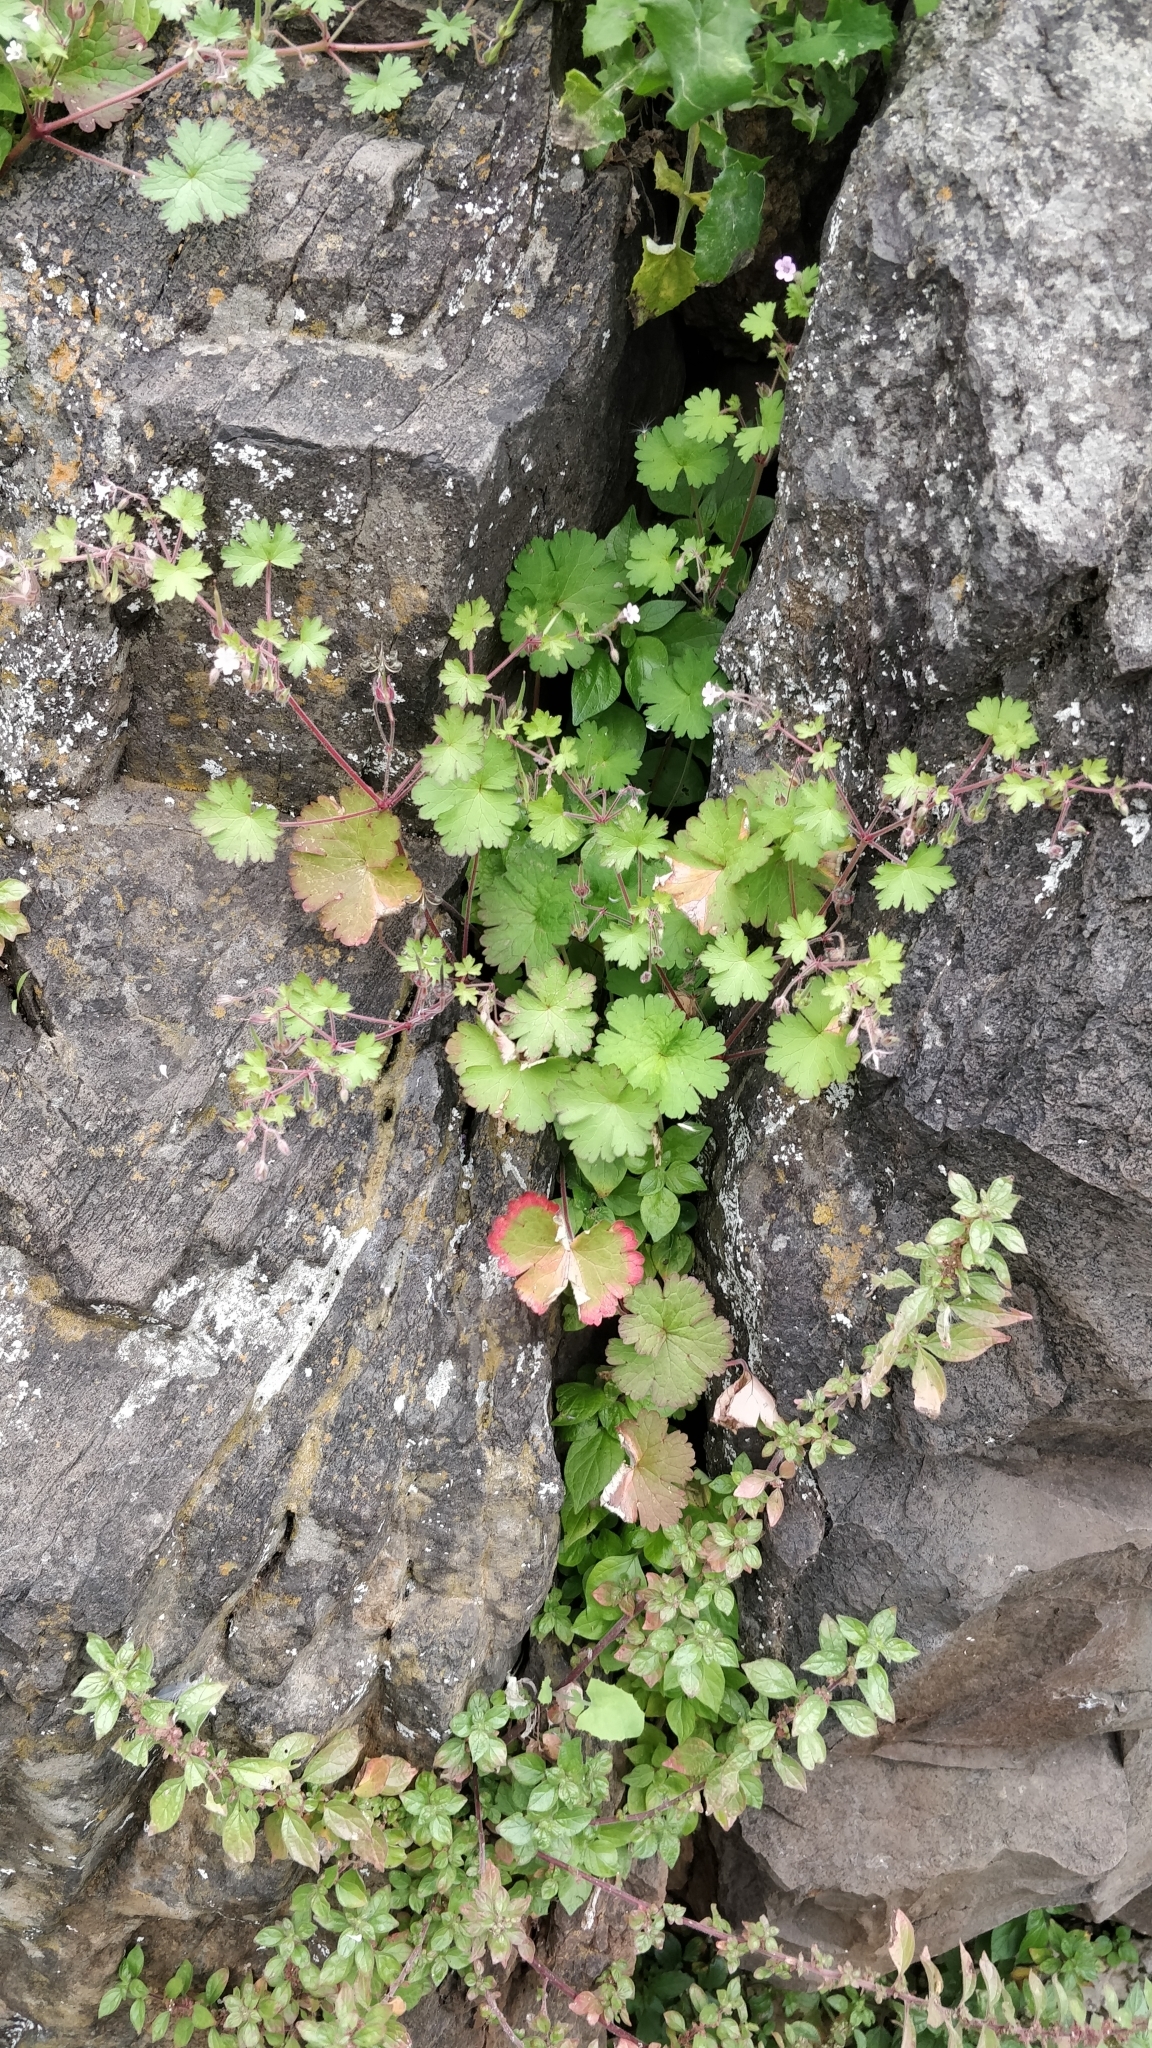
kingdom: Plantae
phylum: Tracheophyta
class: Magnoliopsida
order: Geraniales
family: Geraniaceae
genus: Geranium
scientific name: Geranium rotundifolium
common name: Round-leaved crane's-bill
